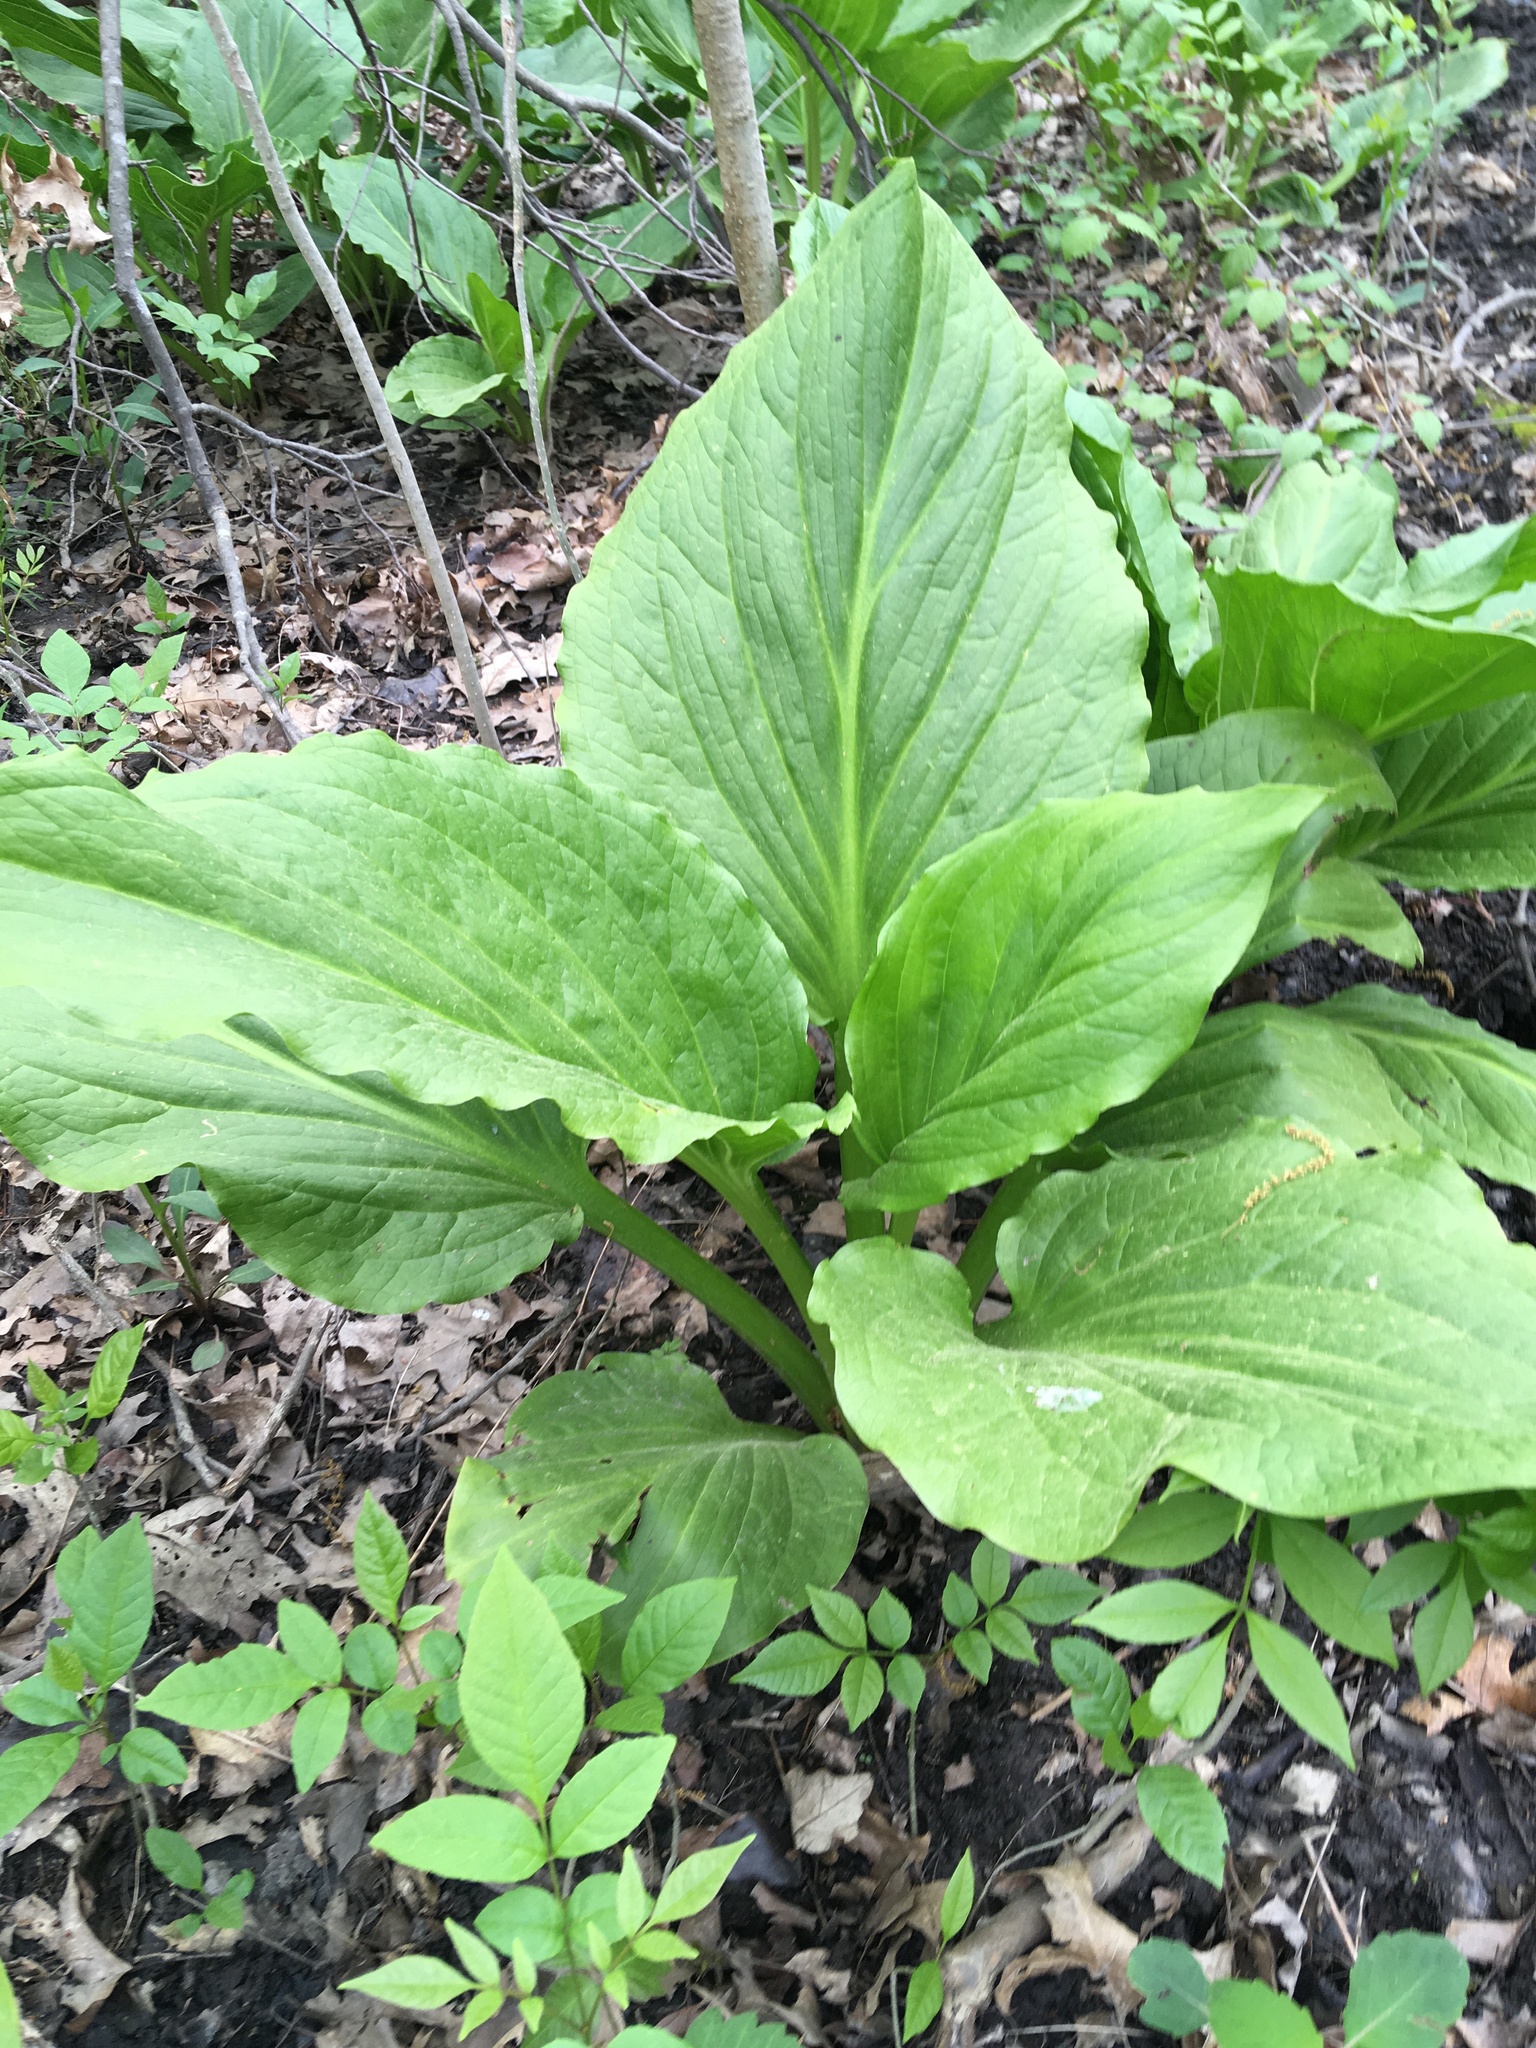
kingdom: Plantae
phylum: Tracheophyta
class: Liliopsida
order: Alismatales
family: Araceae
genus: Symplocarpus
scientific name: Symplocarpus foetidus
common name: Eastern skunk cabbage
